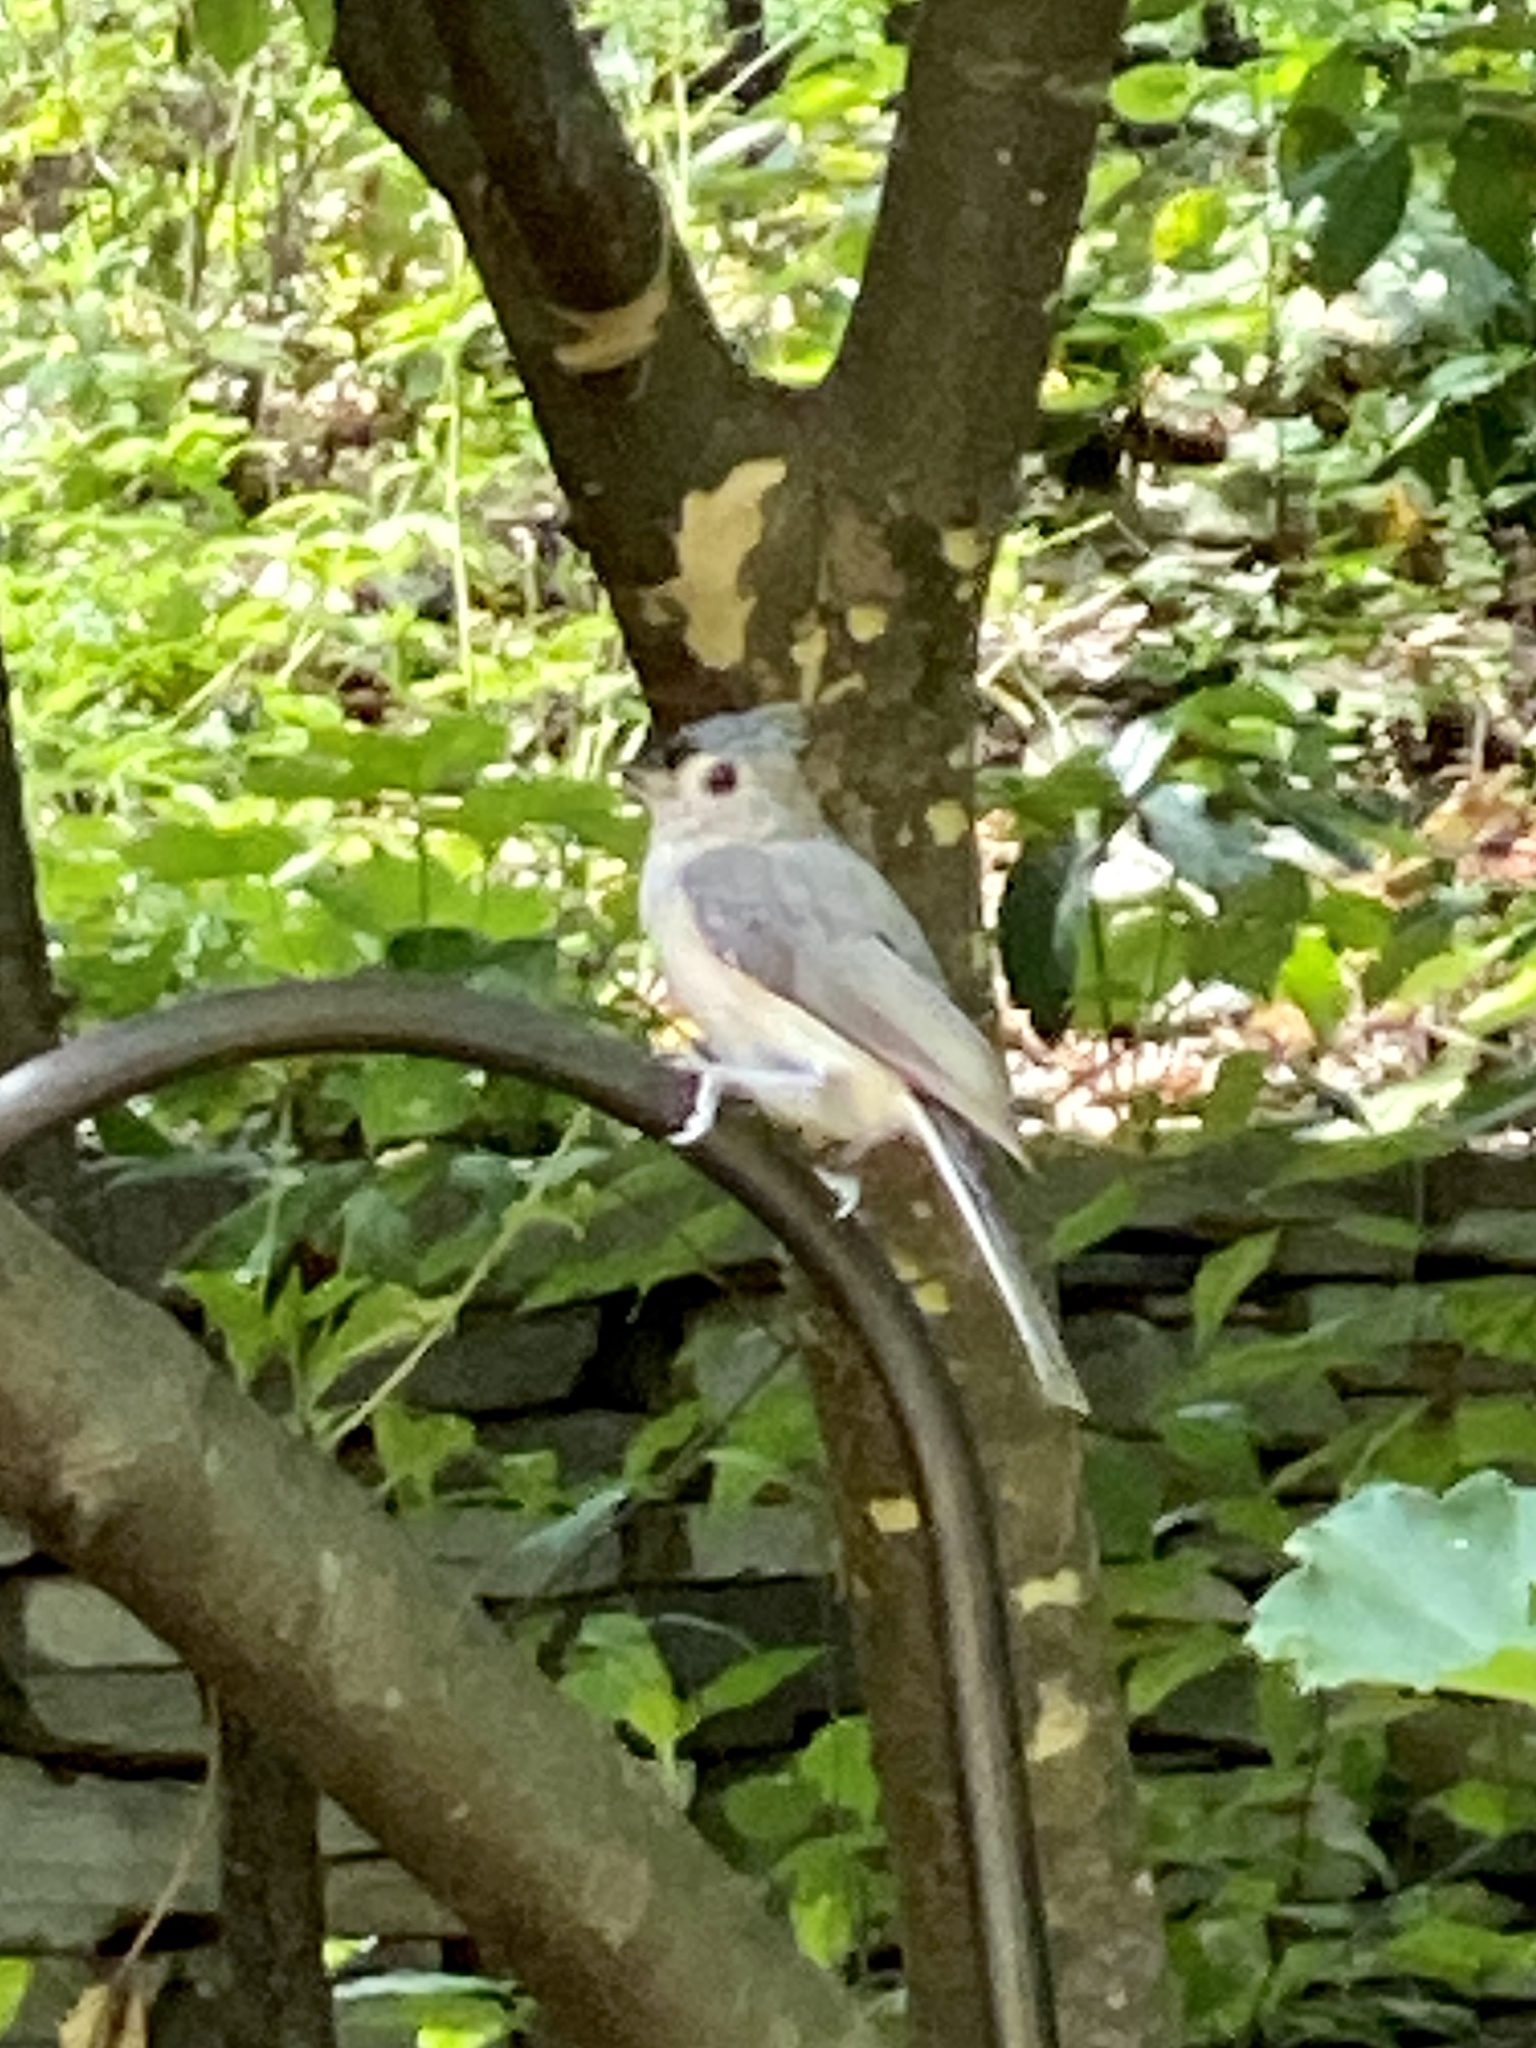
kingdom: Animalia
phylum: Chordata
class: Aves
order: Passeriformes
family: Paridae
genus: Baeolophus
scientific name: Baeolophus bicolor
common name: Tufted titmouse
